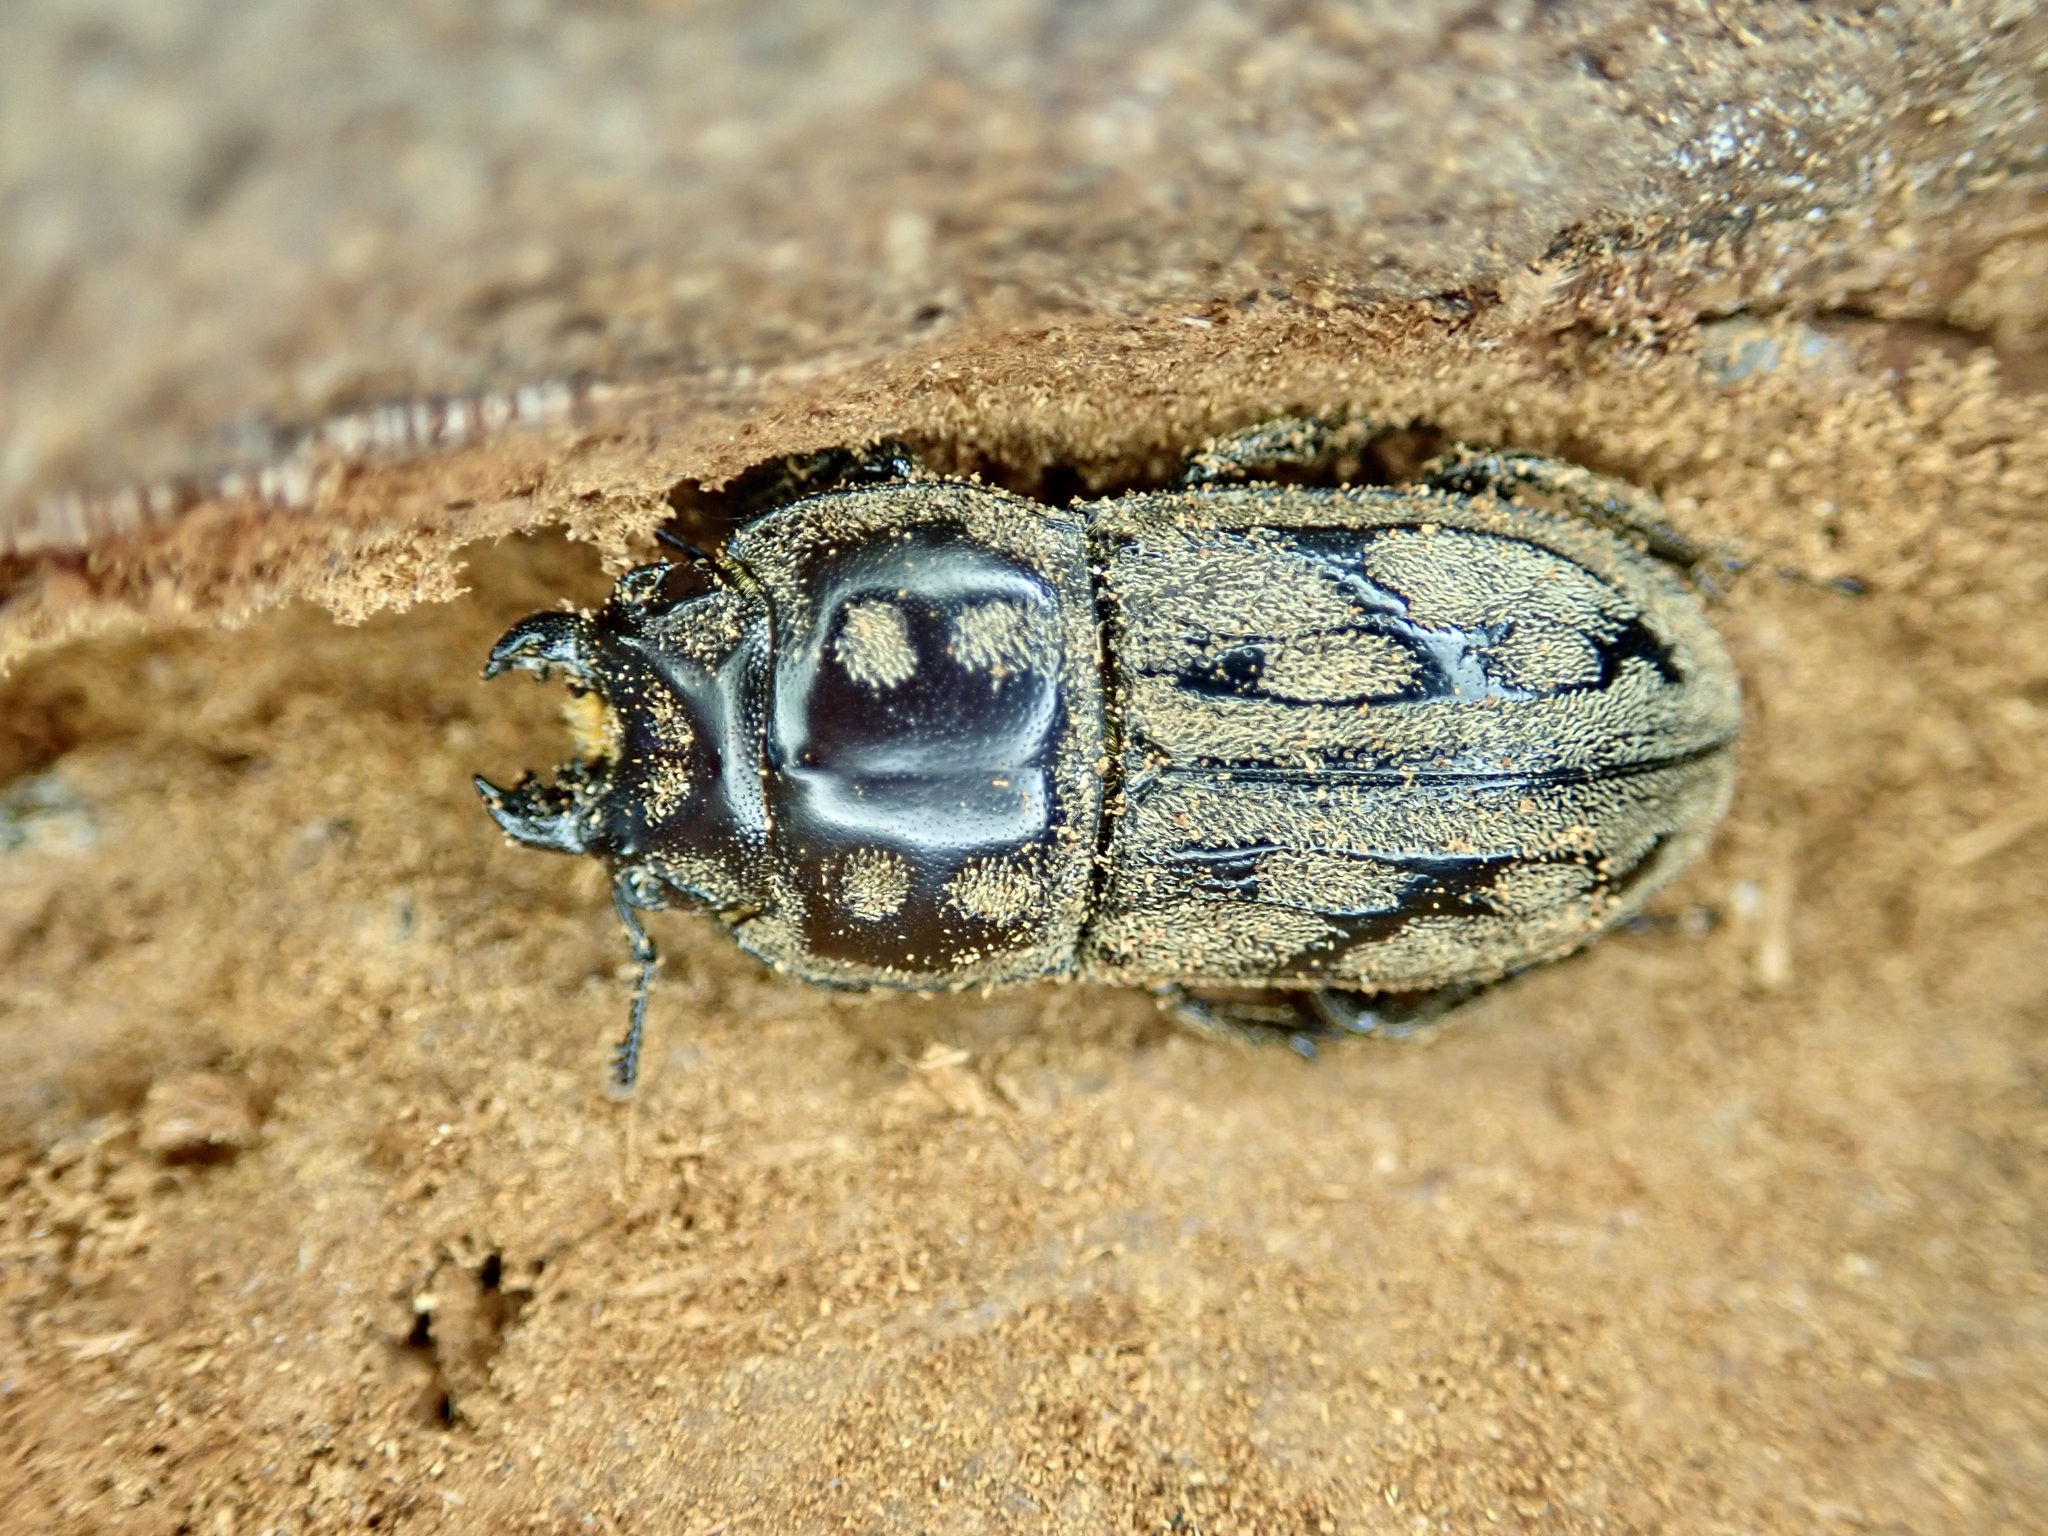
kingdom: Animalia
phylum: Arthropoda
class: Insecta
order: Coleoptera
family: Lucanidae
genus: Paralissotes
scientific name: Paralissotes reticulatus
